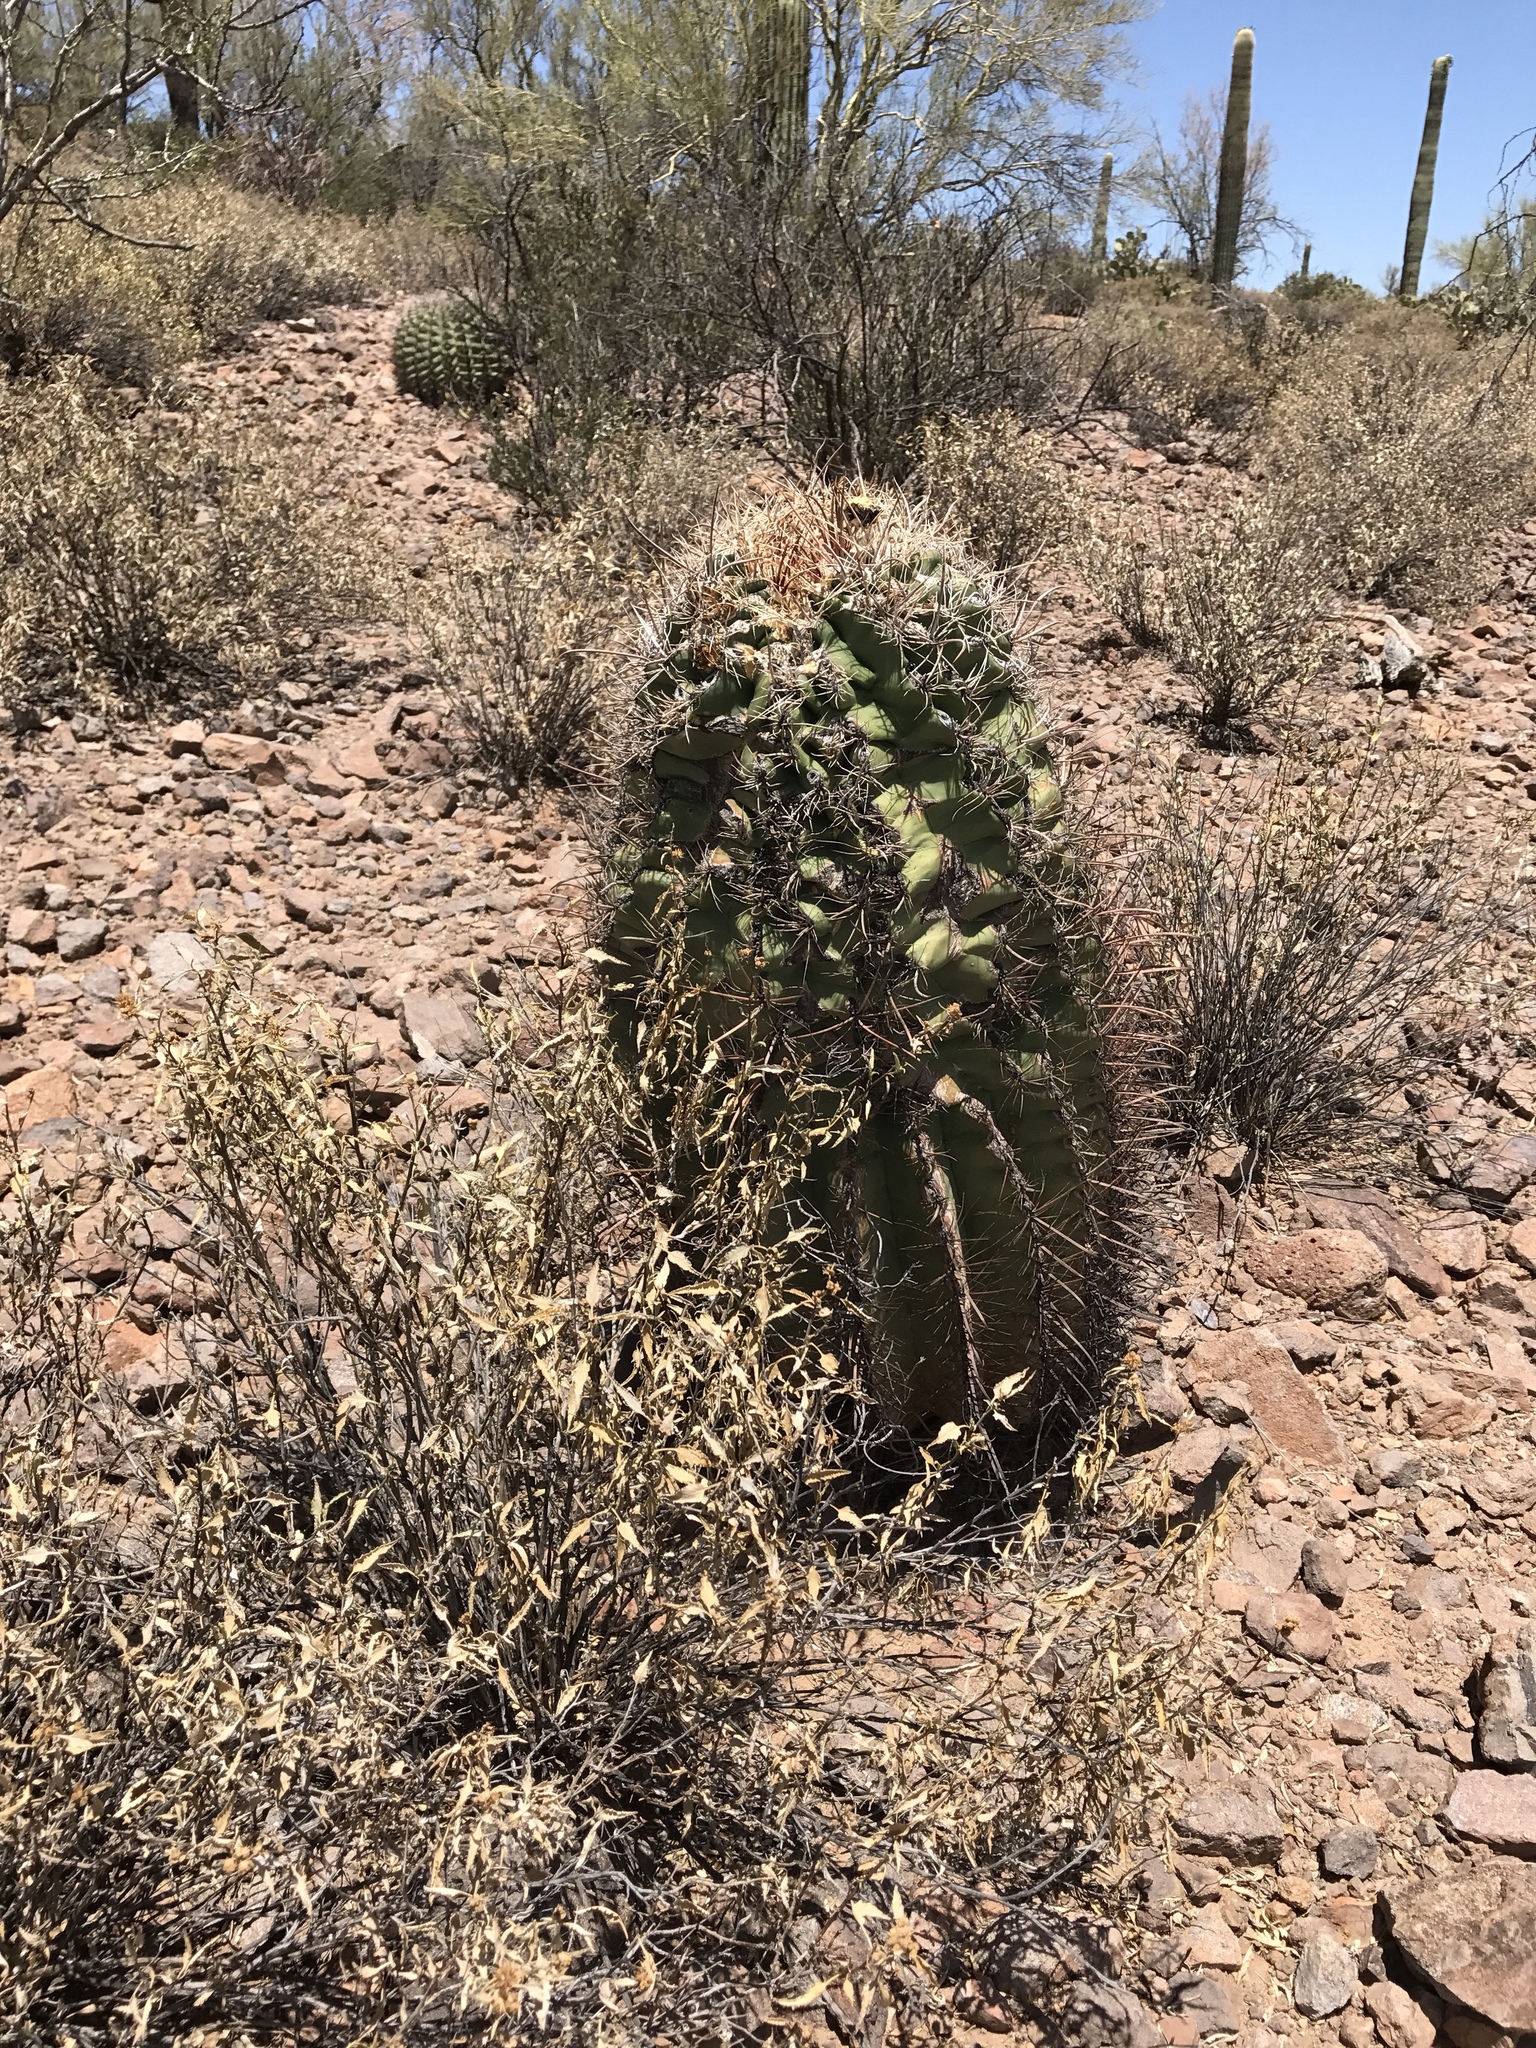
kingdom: Plantae
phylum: Tracheophyta
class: Magnoliopsida
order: Caryophyllales
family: Cactaceae
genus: Ferocactus
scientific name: Ferocactus wislizeni
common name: Candy barrel cactus
